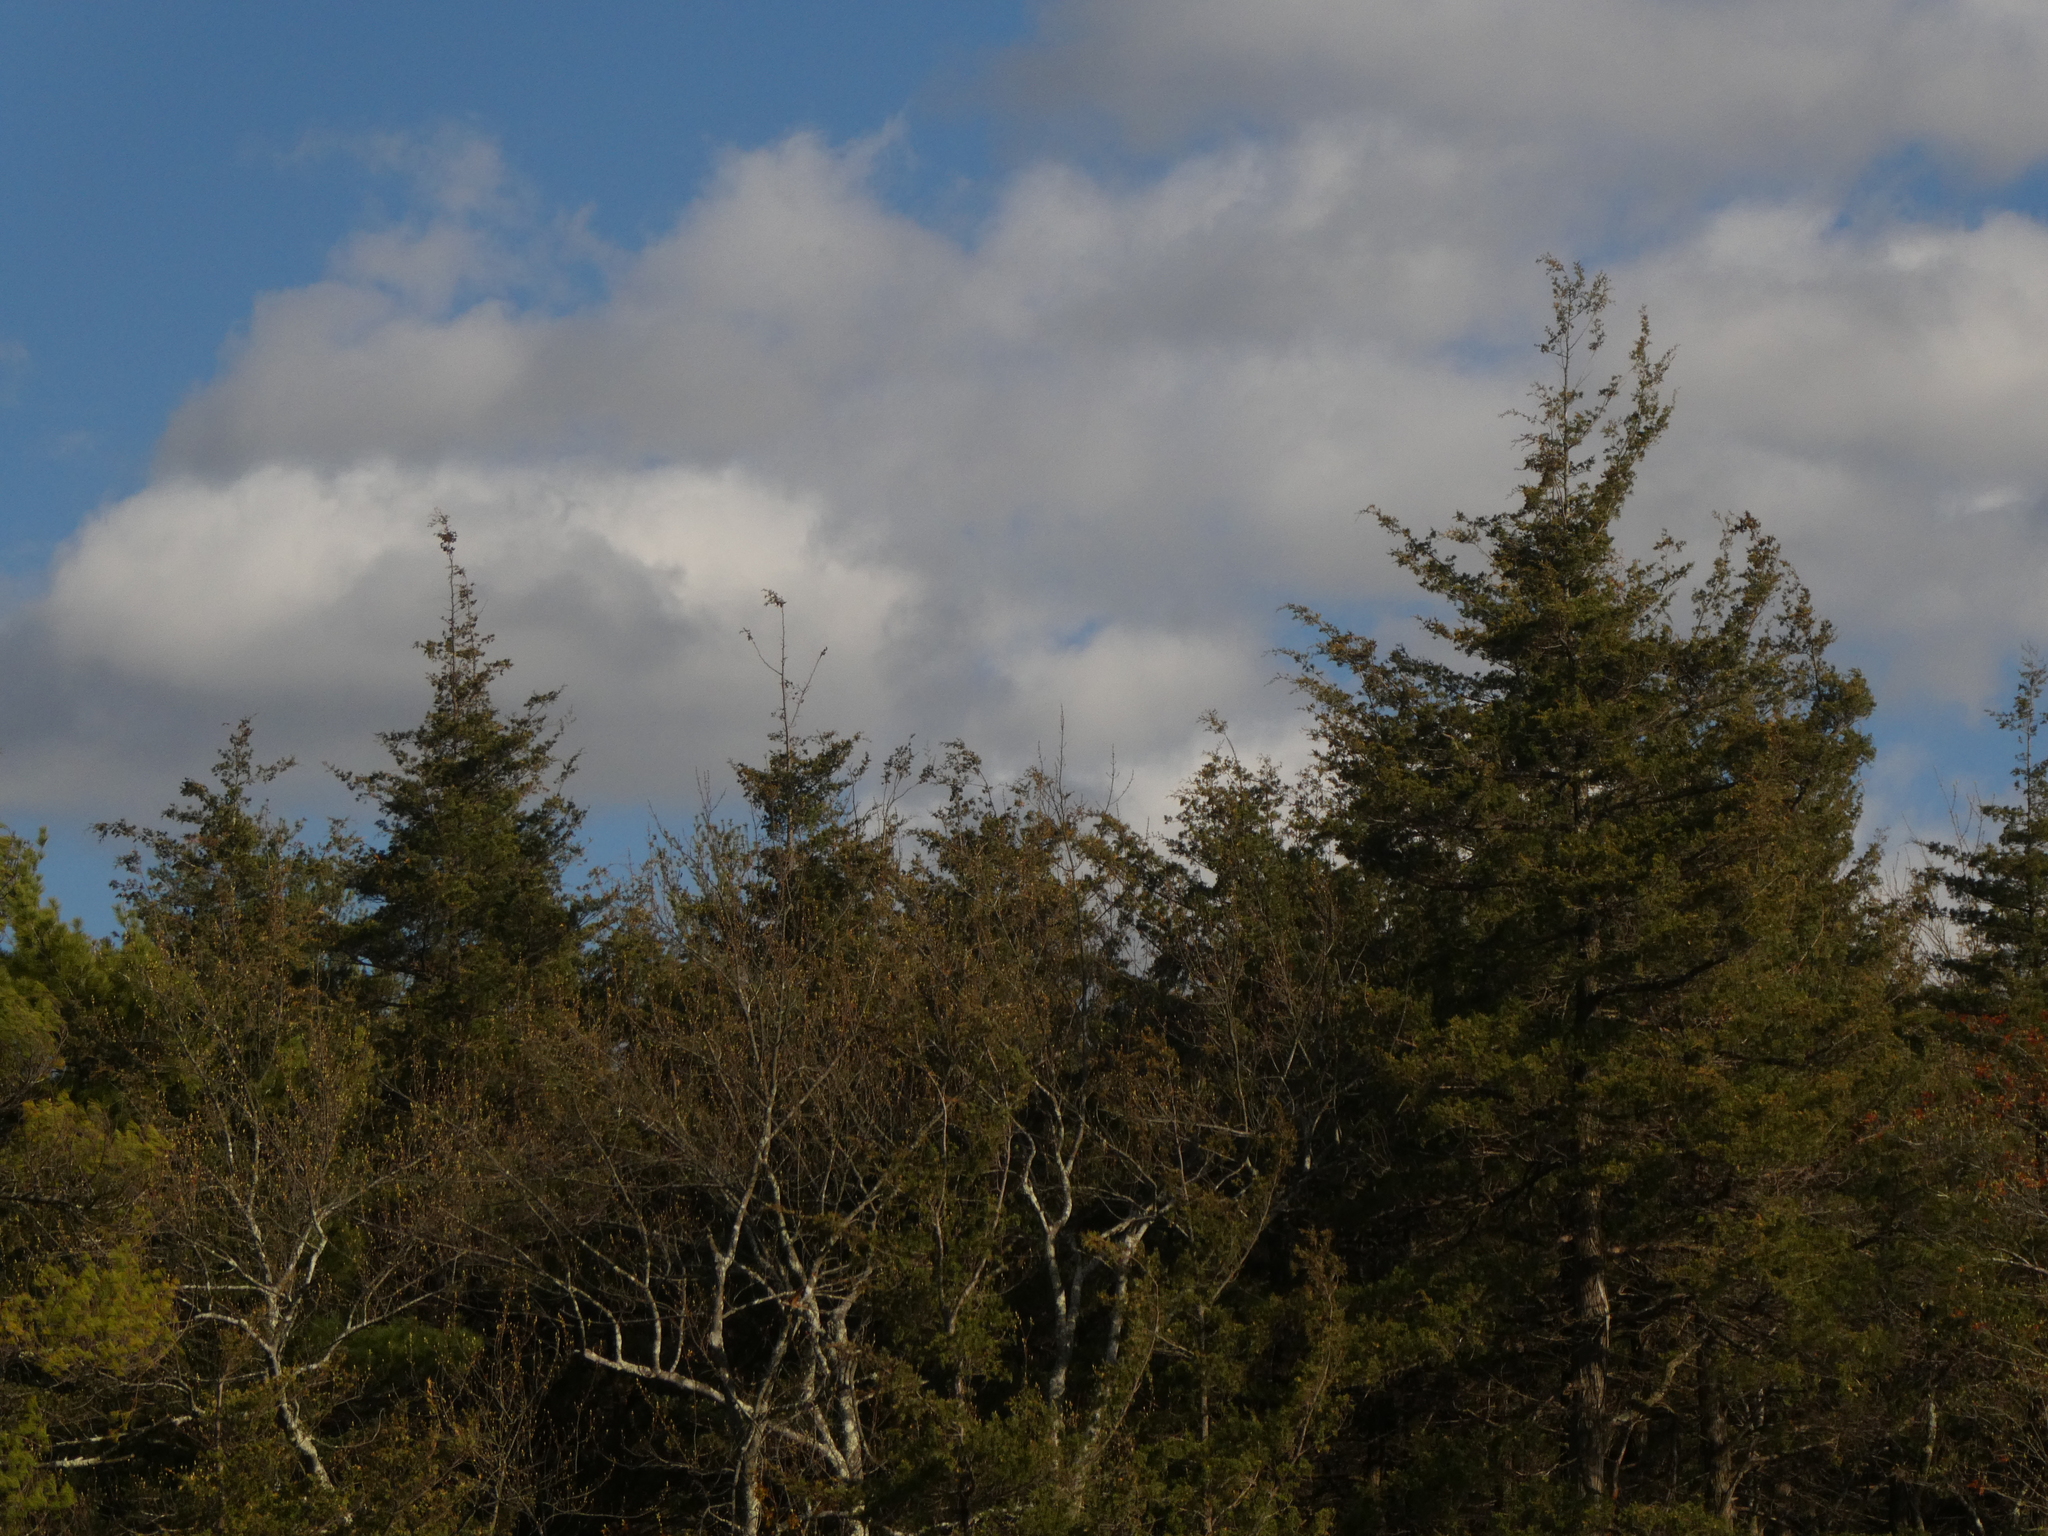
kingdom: Plantae
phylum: Tracheophyta
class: Pinopsida
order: Pinales
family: Cupressaceae
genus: Chamaecyparis
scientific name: Chamaecyparis thyoides
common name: Atlantic white cedar
